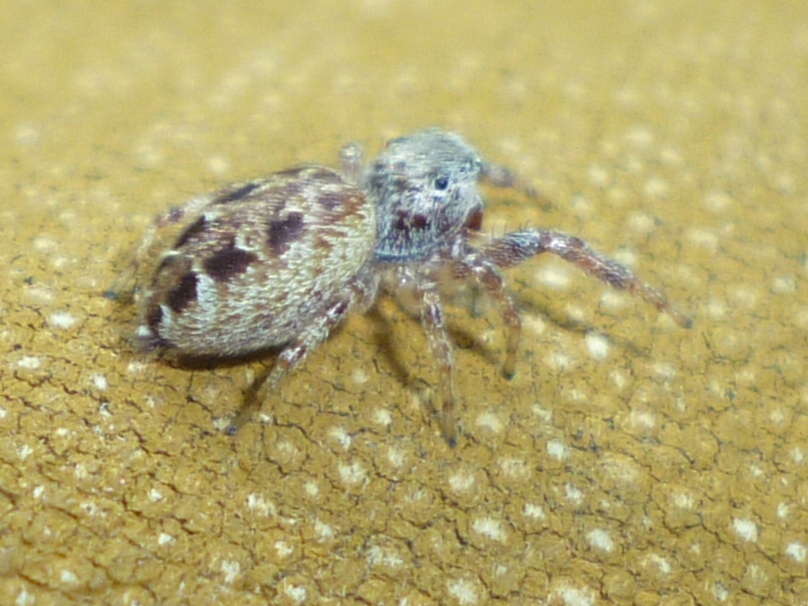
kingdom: Animalia
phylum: Arthropoda
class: Arachnida
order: Araneae
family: Salticidae
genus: Pelegrina
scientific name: Pelegrina proterva
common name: Common white-cheeked jumping spider
